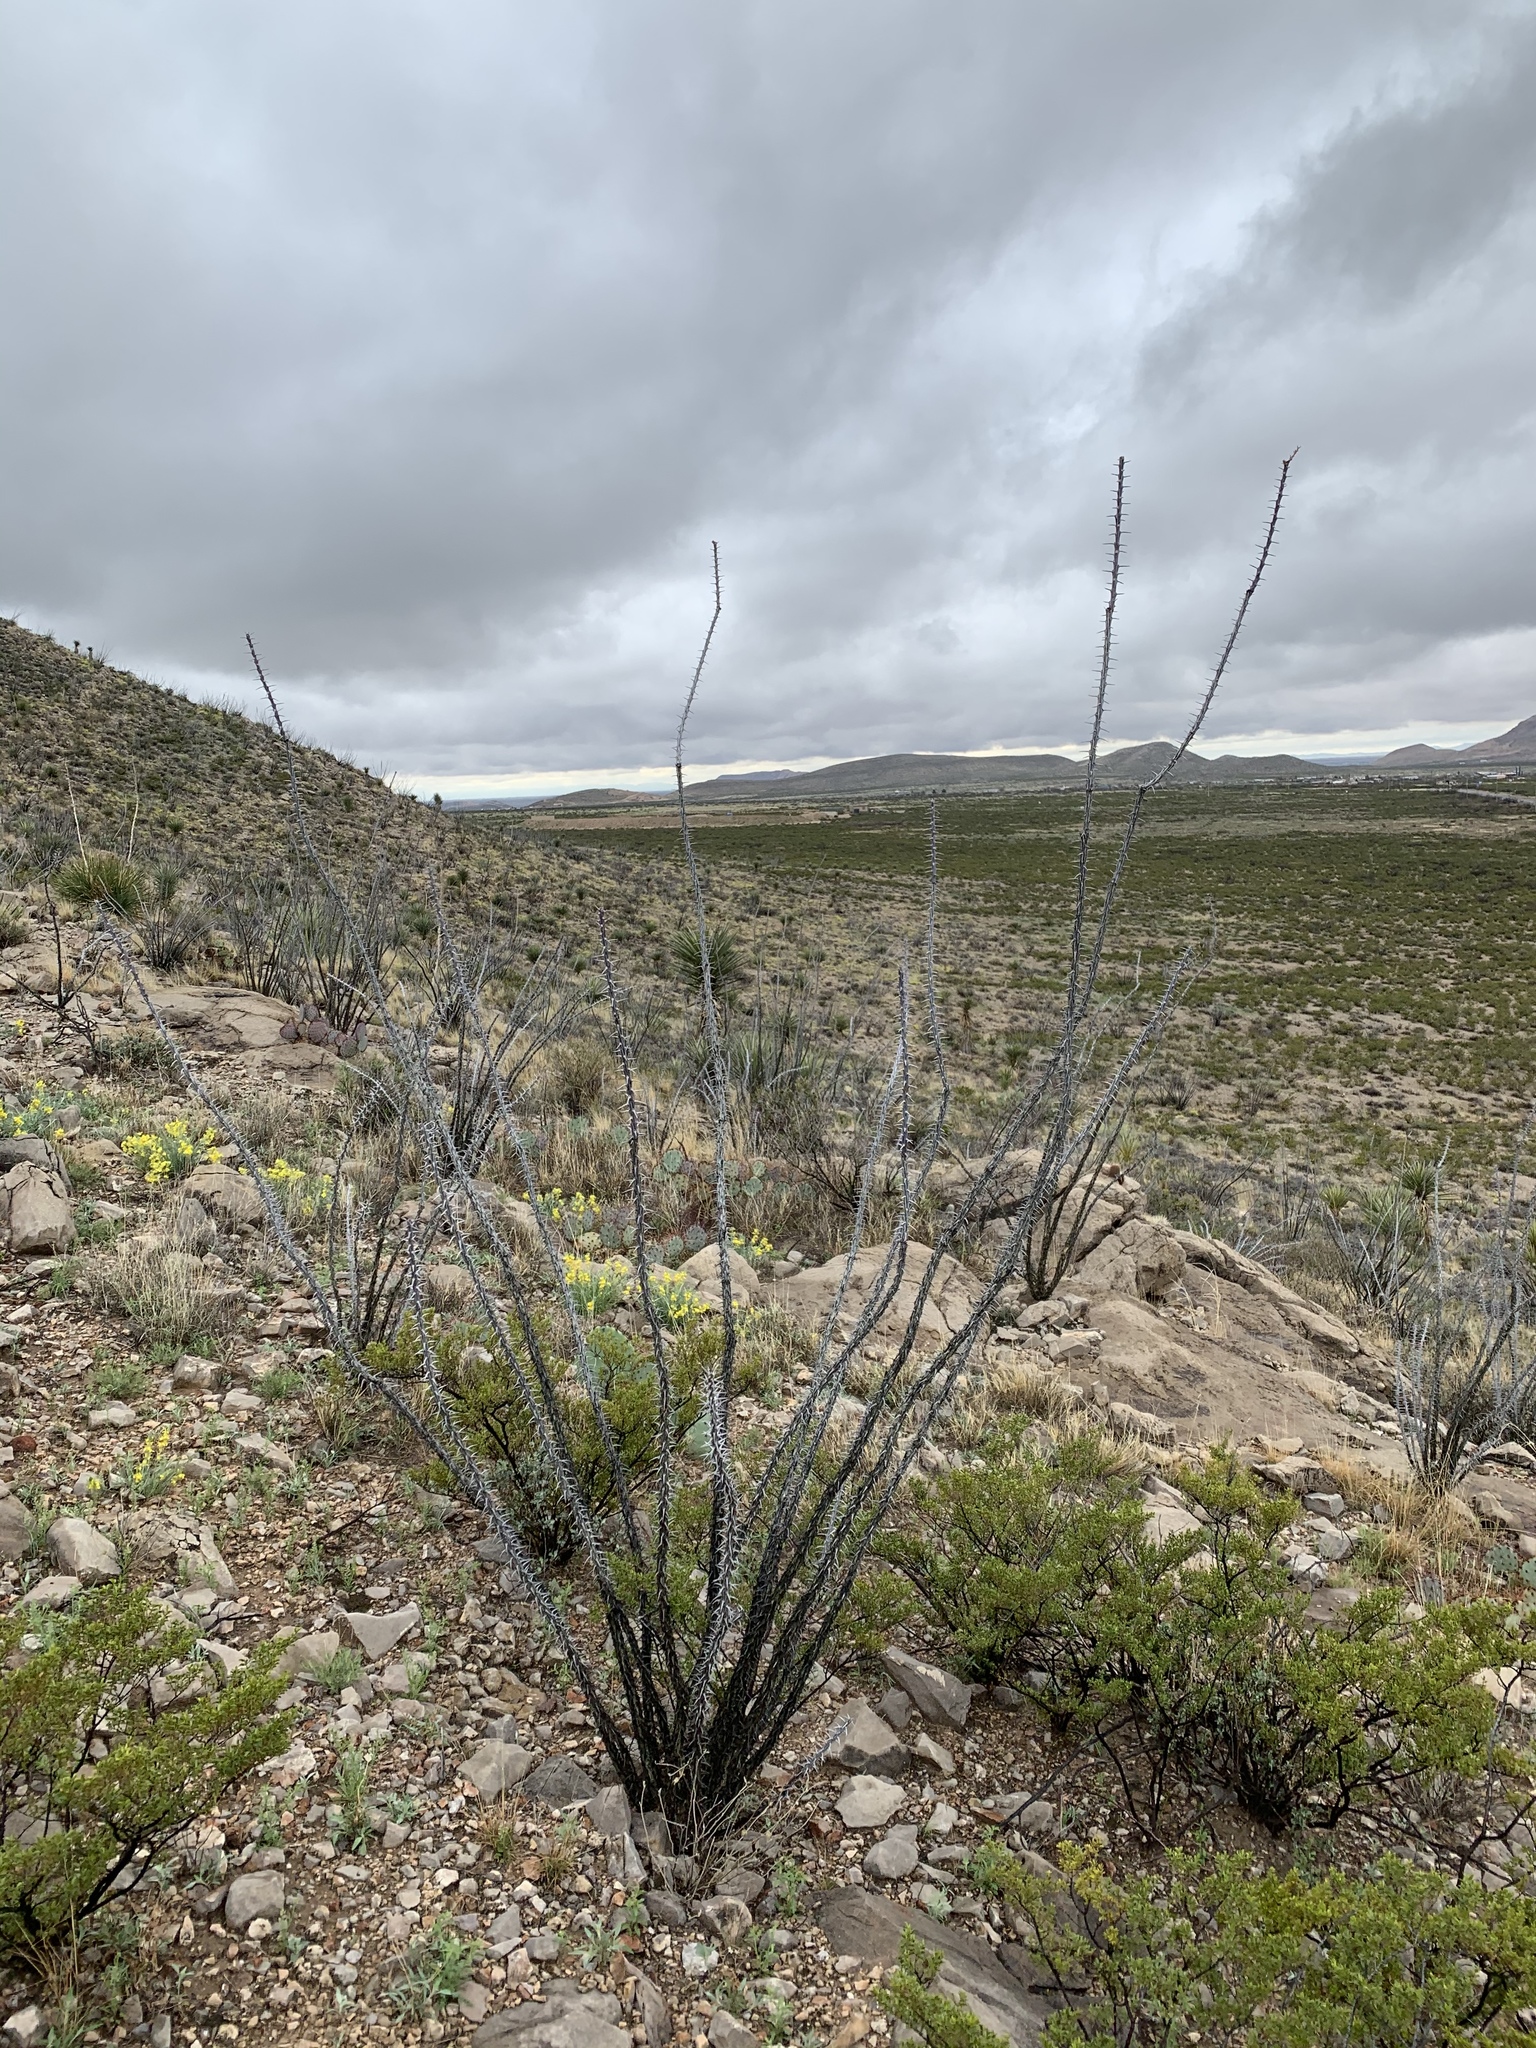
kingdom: Plantae
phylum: Tracheophyta
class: Magnoliopsida
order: Ericales
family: Fouquieriaceae
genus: Fouquieria
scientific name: Fouquieria splendens
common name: Vine-cactus
